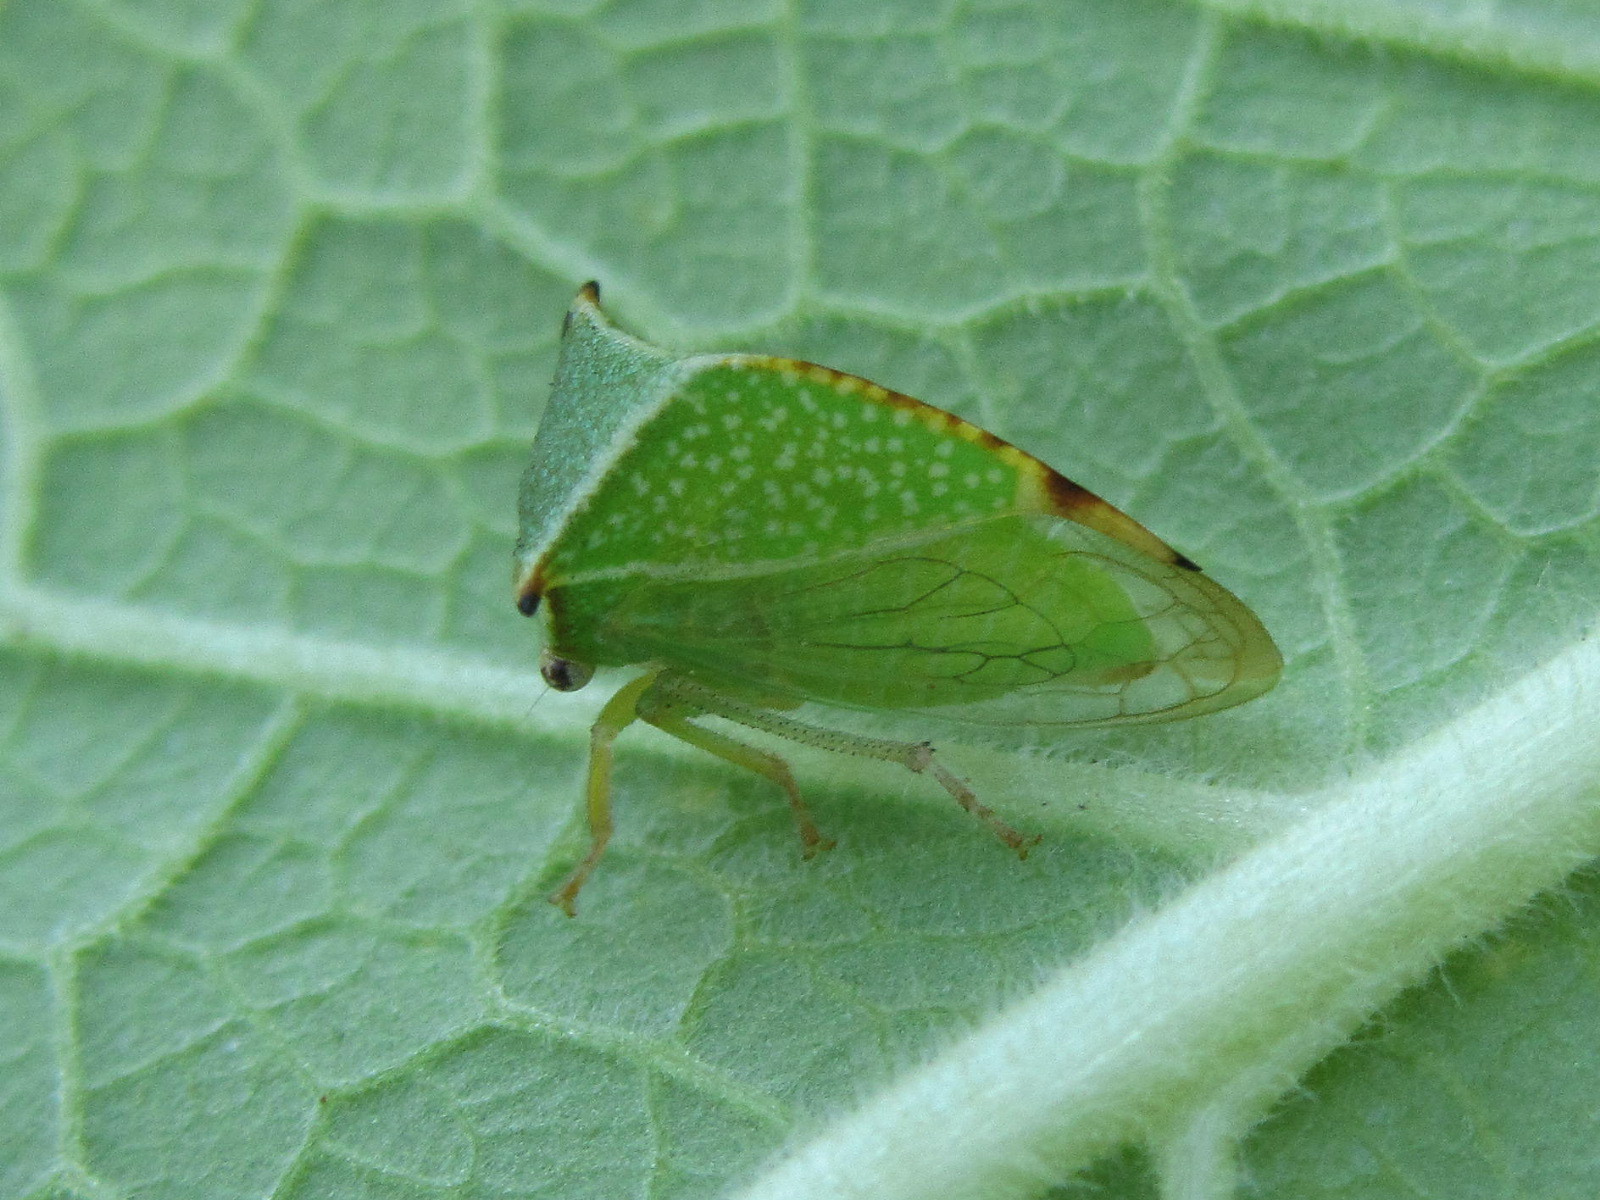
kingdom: Animalia
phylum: Arthropoda
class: Insecta
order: Hemiptera
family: Membracidae
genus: Stictocephala
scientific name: Stictocephala bisonia
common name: American buffalo treehopper
